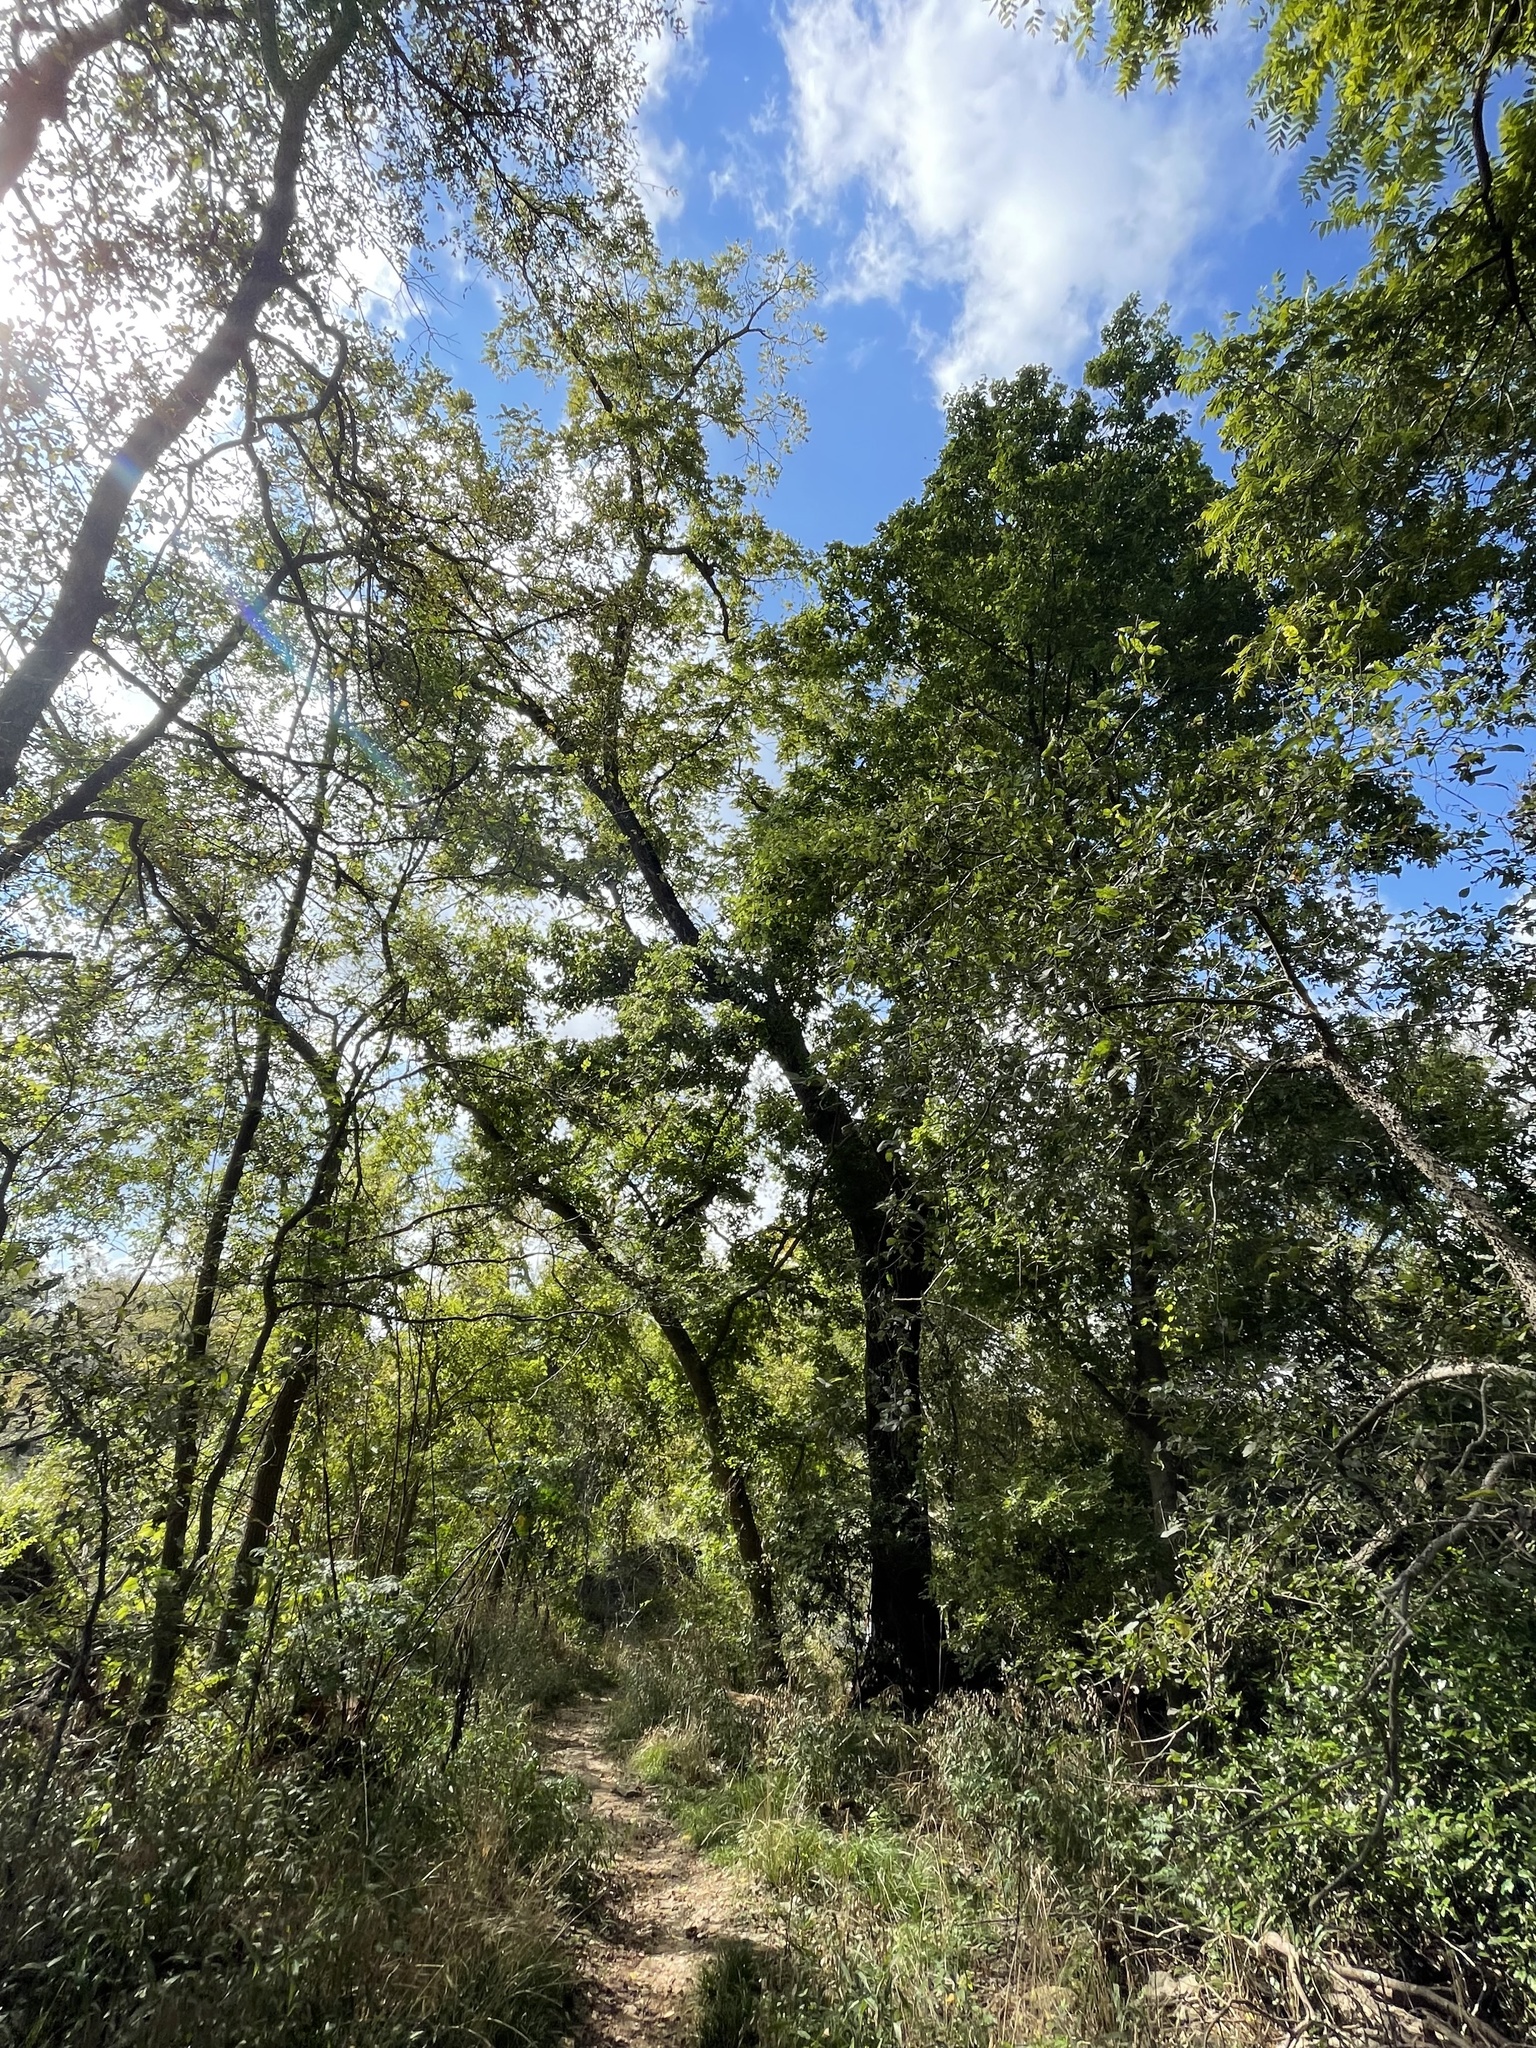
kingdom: Plantae
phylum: Tracheophyta
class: Magnoliopsida
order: Fagales
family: Juglandaceae
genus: Juglans
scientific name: Juglans nigra
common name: Black walnut
